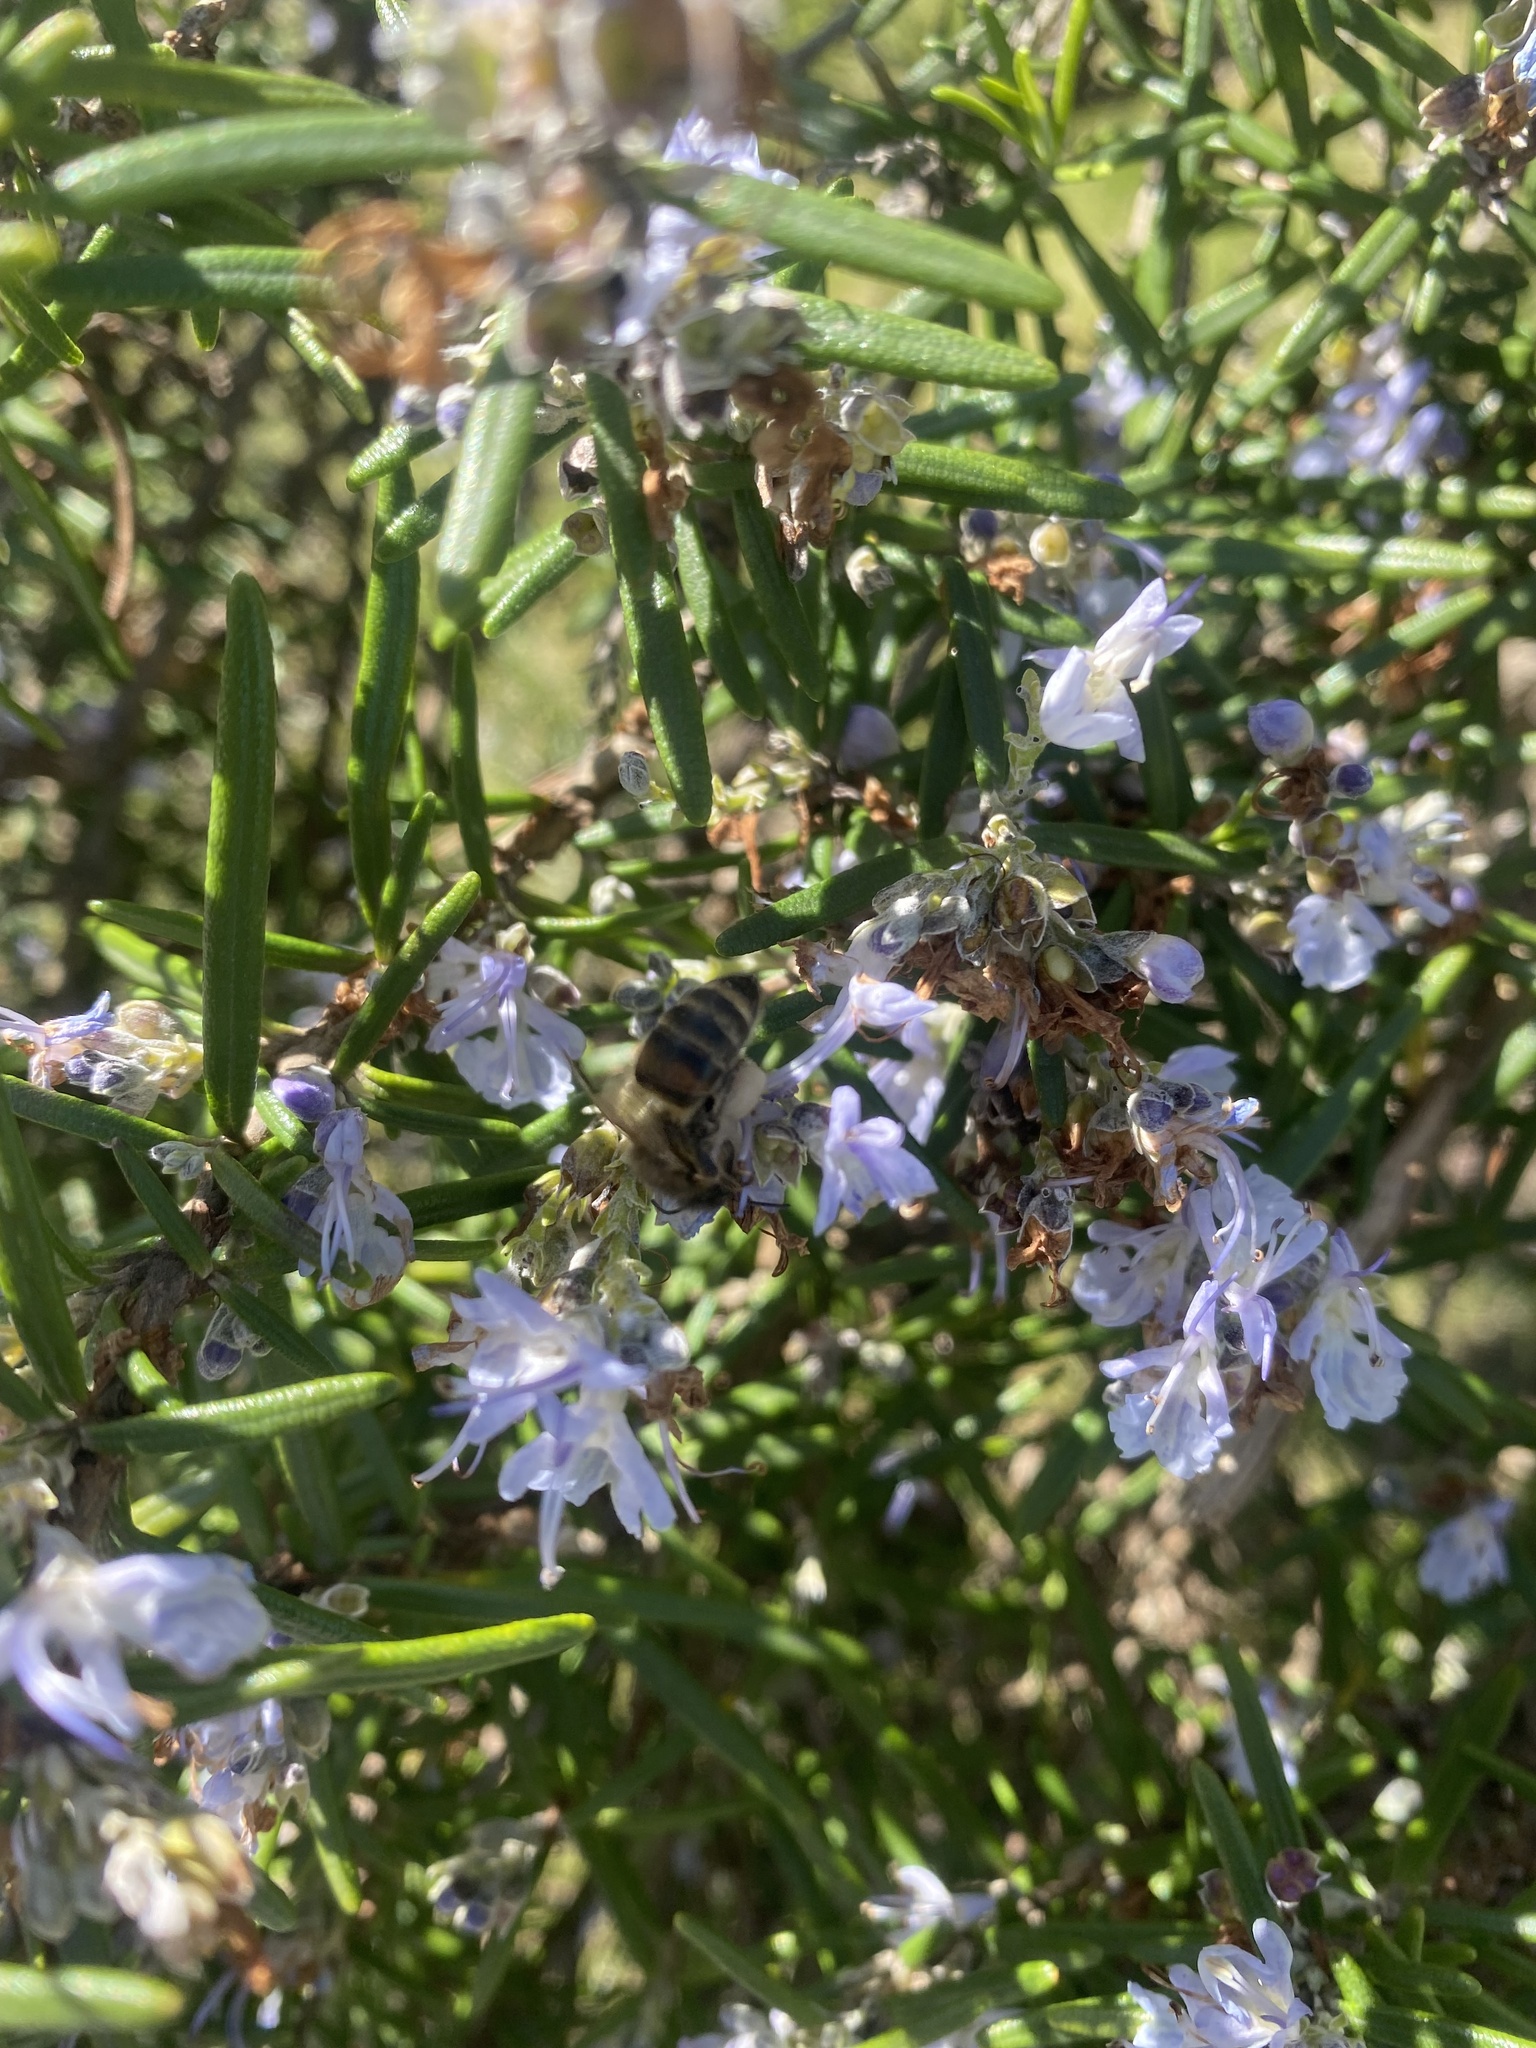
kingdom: Animalia
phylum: Arthropoda
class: Insecta
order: Hymenoptera
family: Apidae
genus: Apis
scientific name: Apis mellifera
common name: Honey bee
